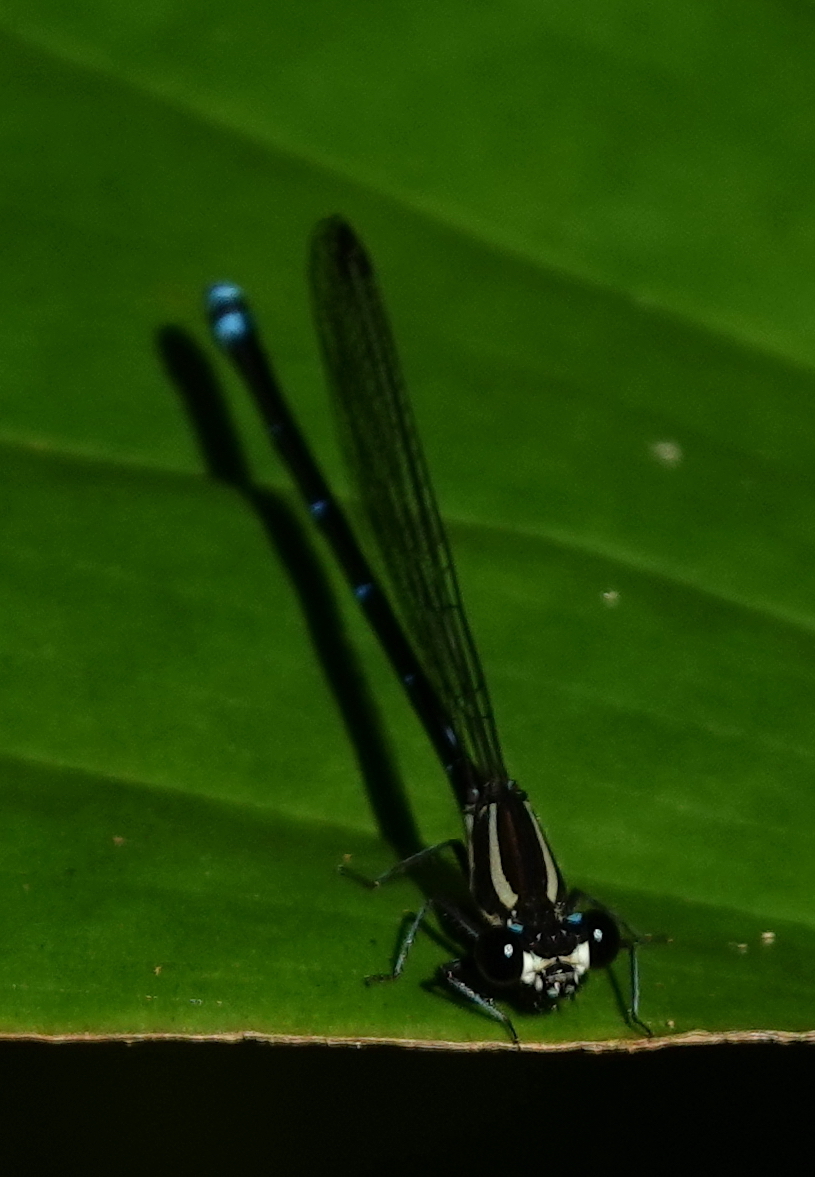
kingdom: Animalia
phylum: Arthropoda
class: Insecta
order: Odonata
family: Coenagrionidae
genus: Argia
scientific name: Argia oculata
